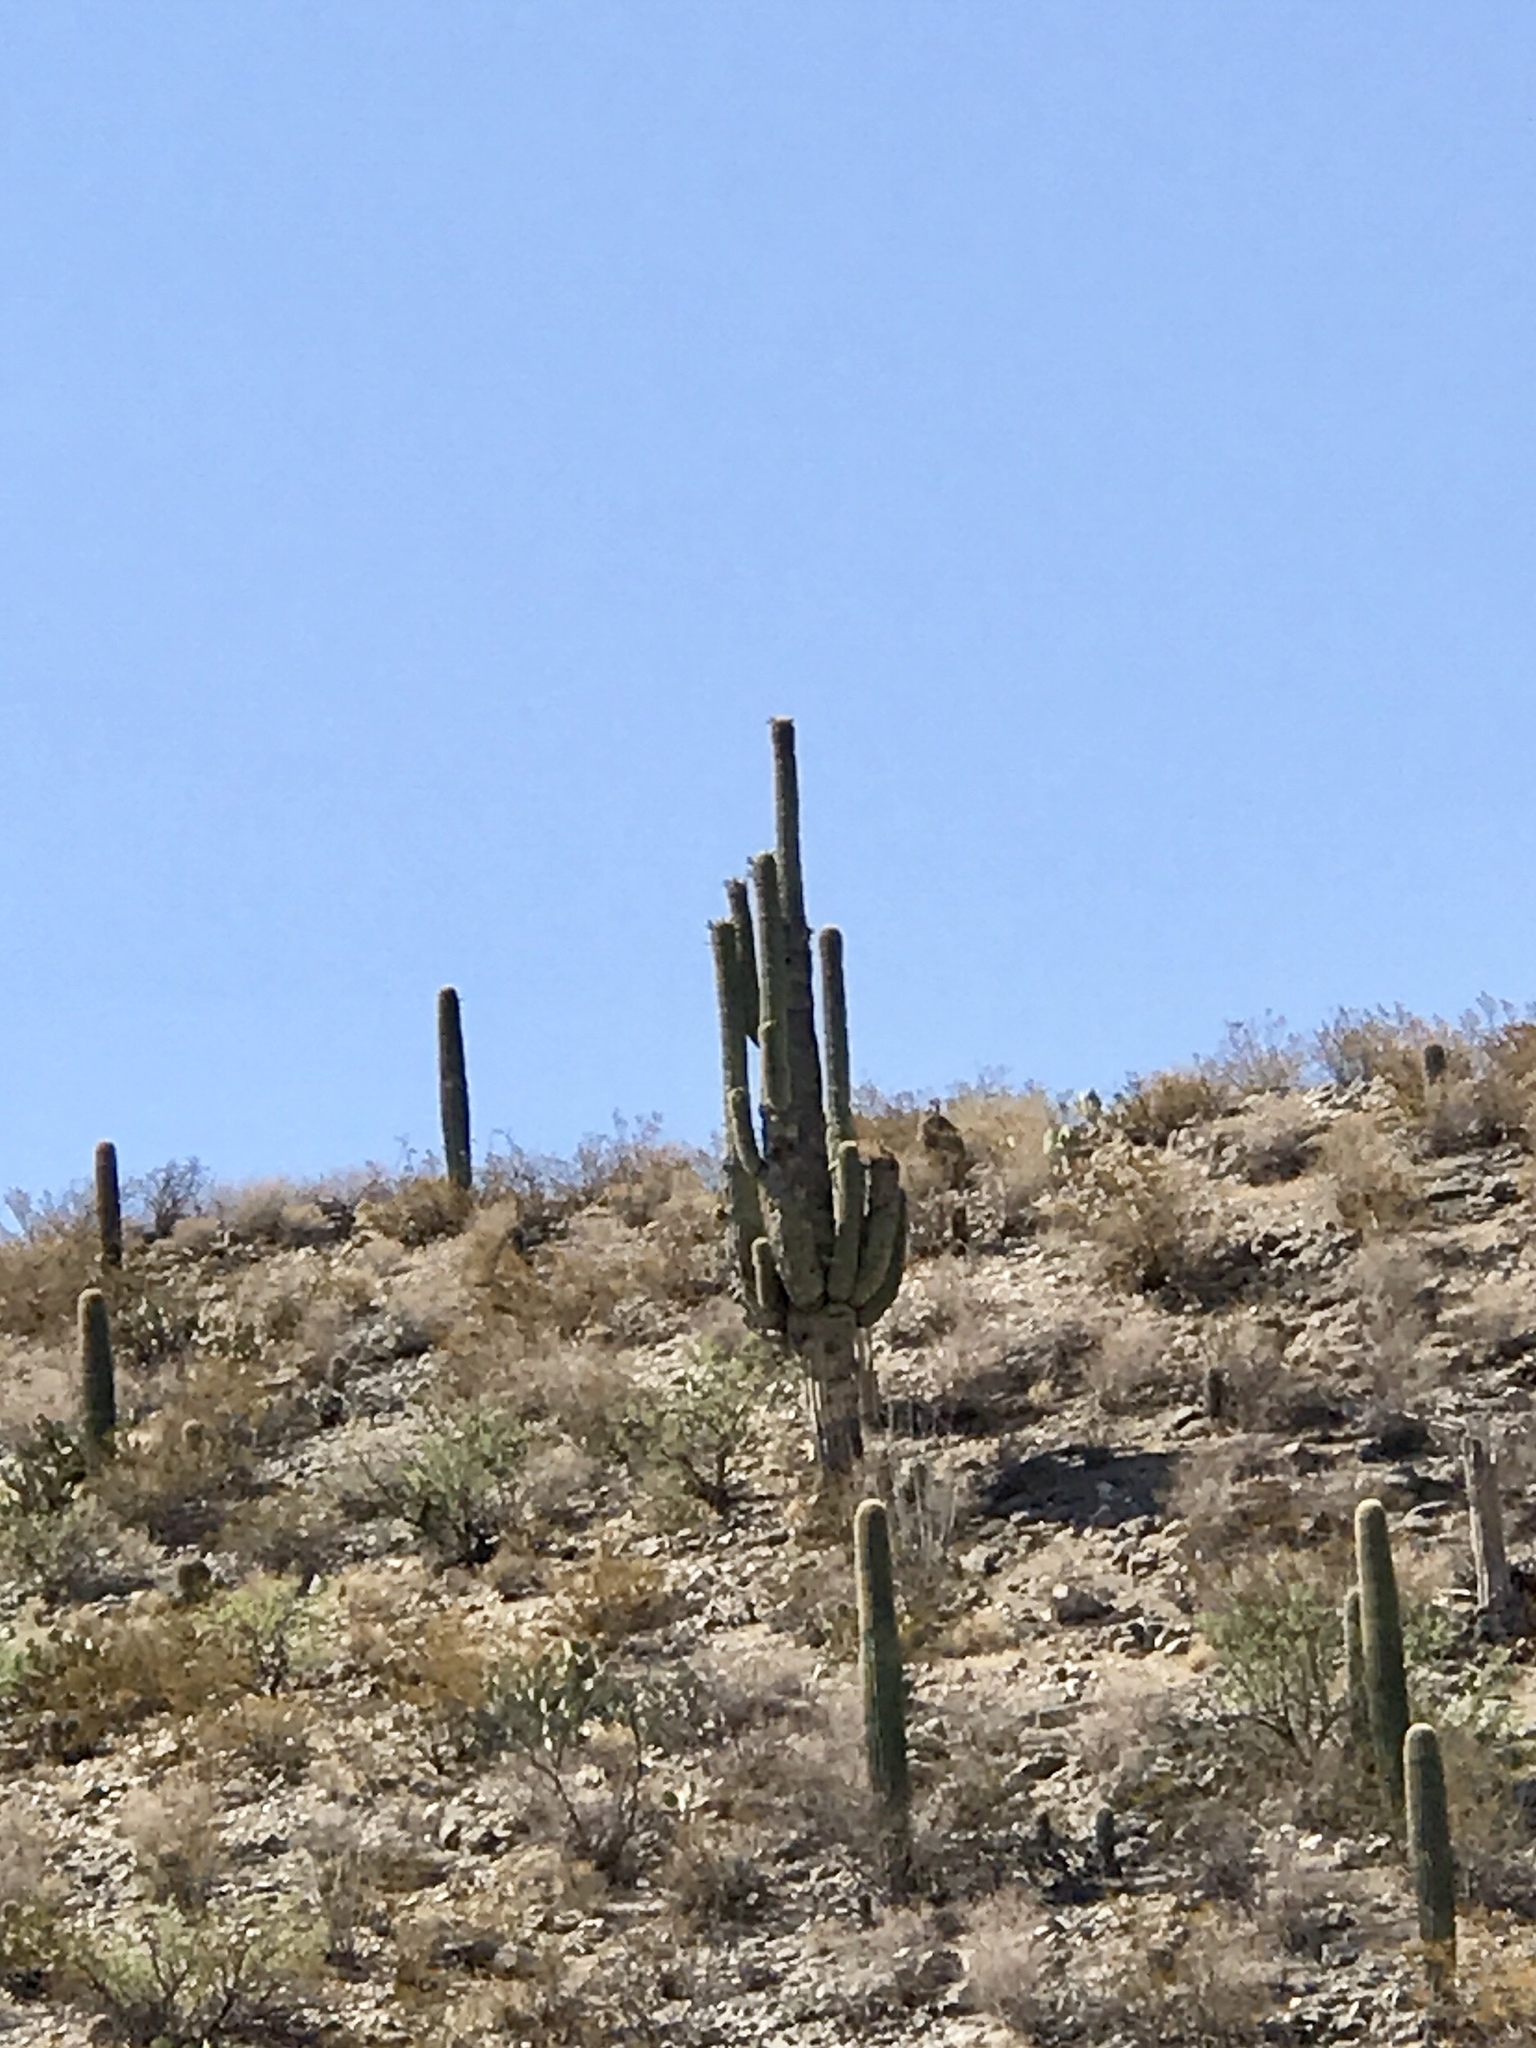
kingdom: Plantae
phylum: Tracheophyta
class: Magnoliopsida
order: Caryophyllales
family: Cactaceae
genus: Carnegiea
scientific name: Carnegiea gigantea
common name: Saguaro
